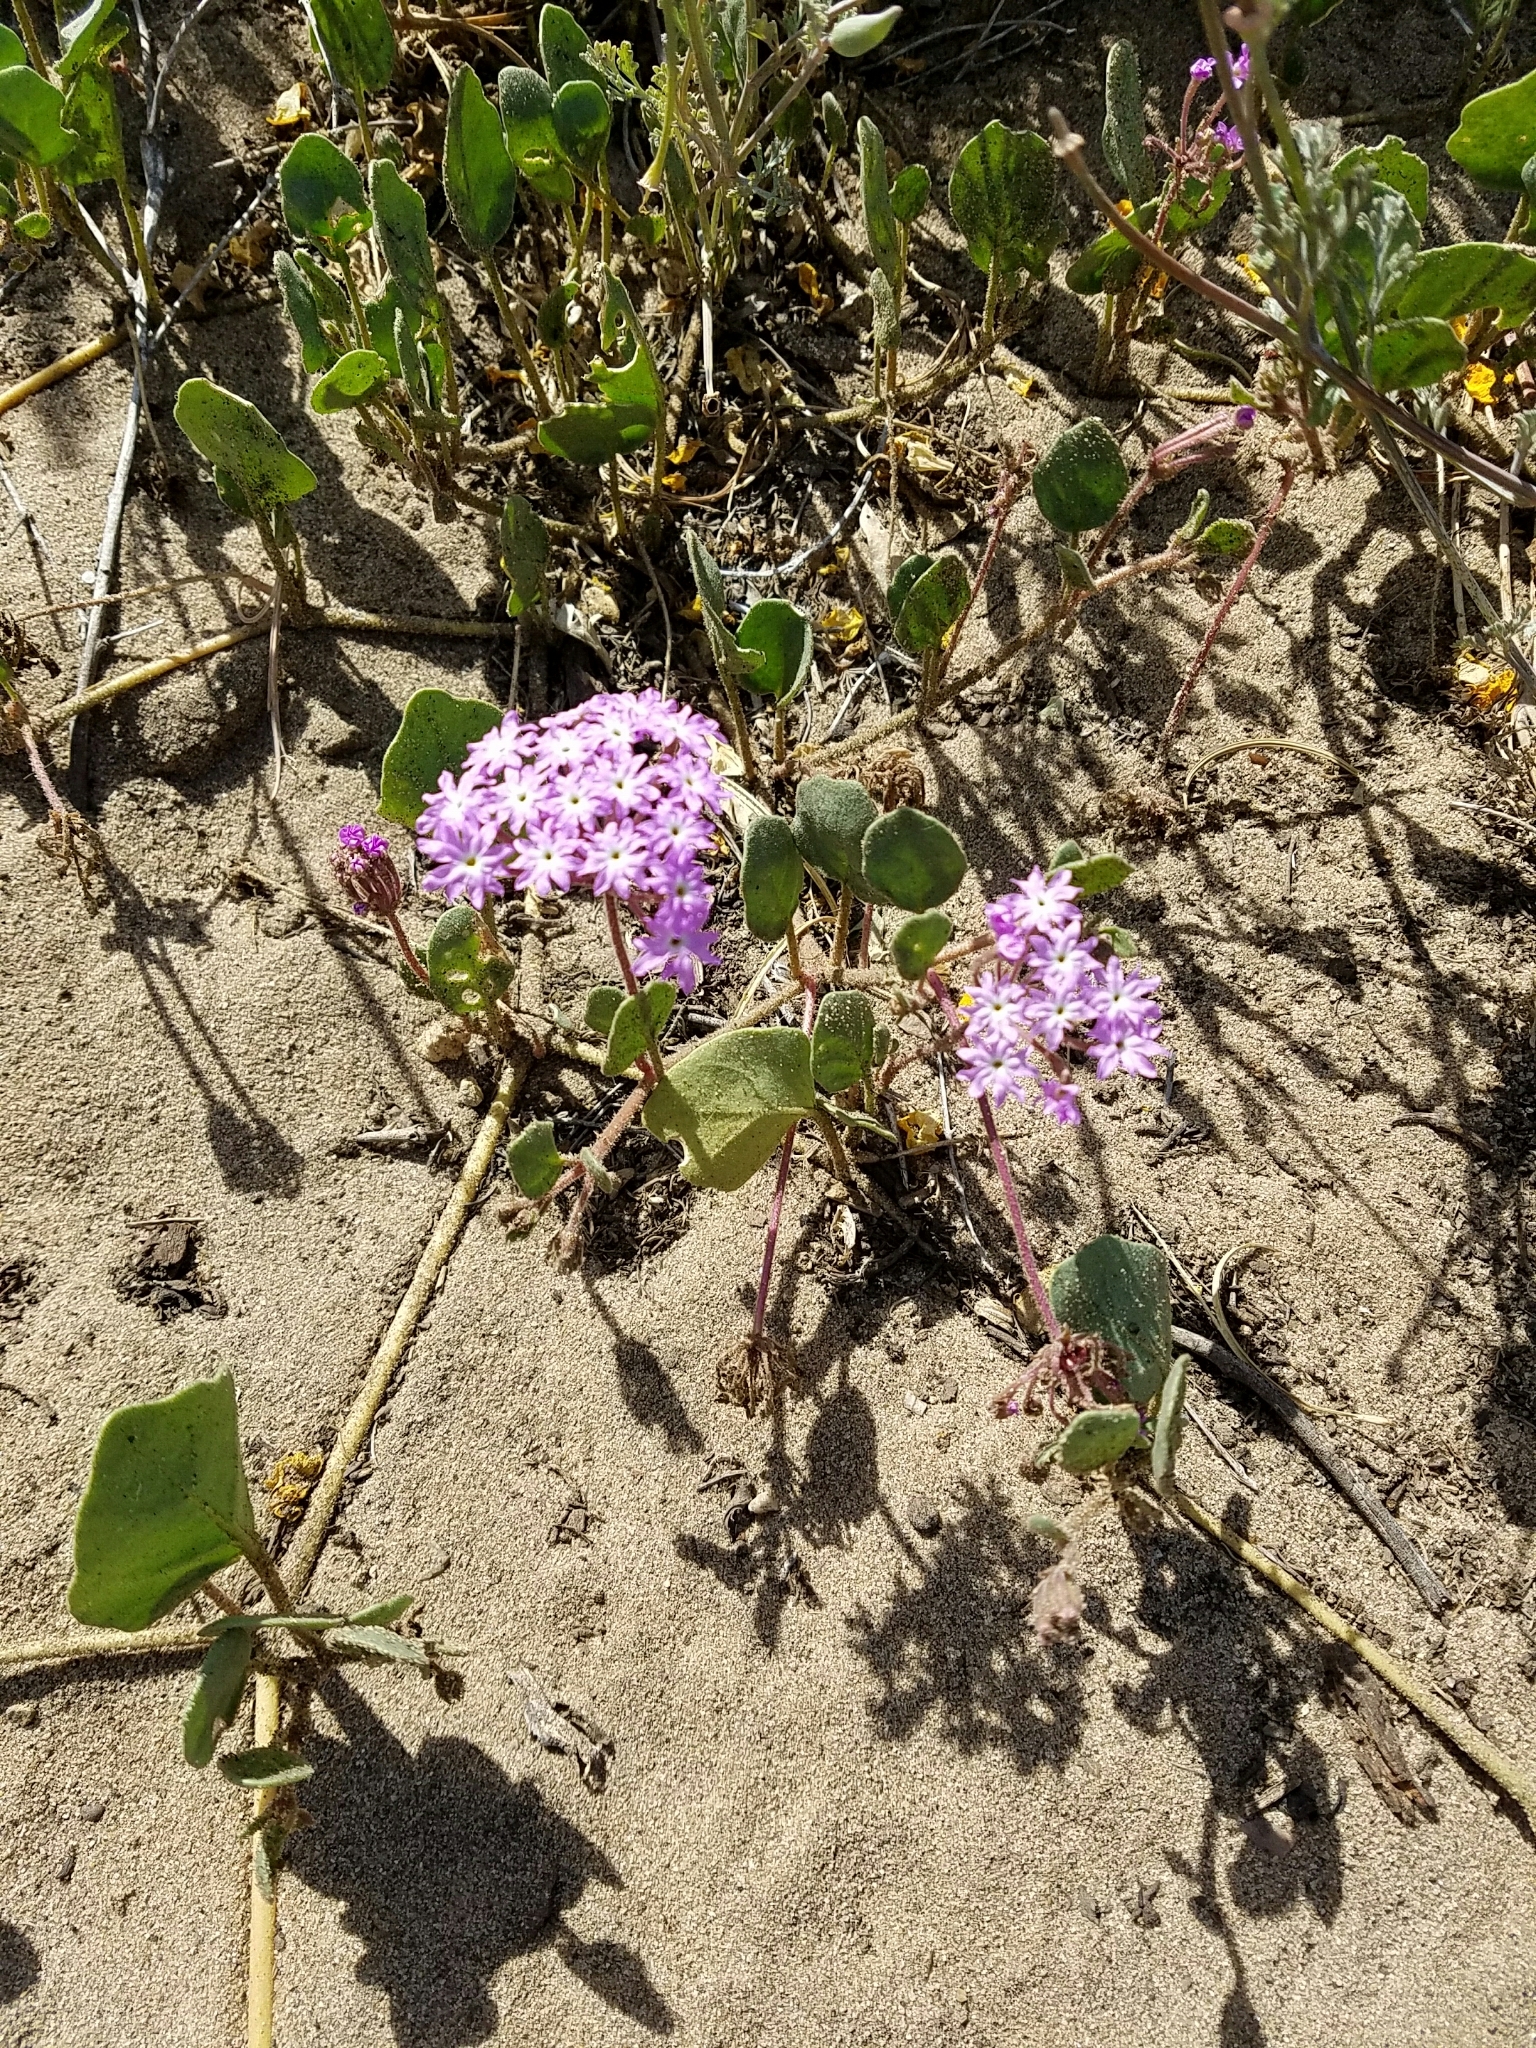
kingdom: Plantae
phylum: Tracheophyta
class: Magnoliopsida
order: Caryophyllales
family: Nyctaginaceae
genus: Abronia
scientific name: Abronia umbellata
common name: Sand-verbena
